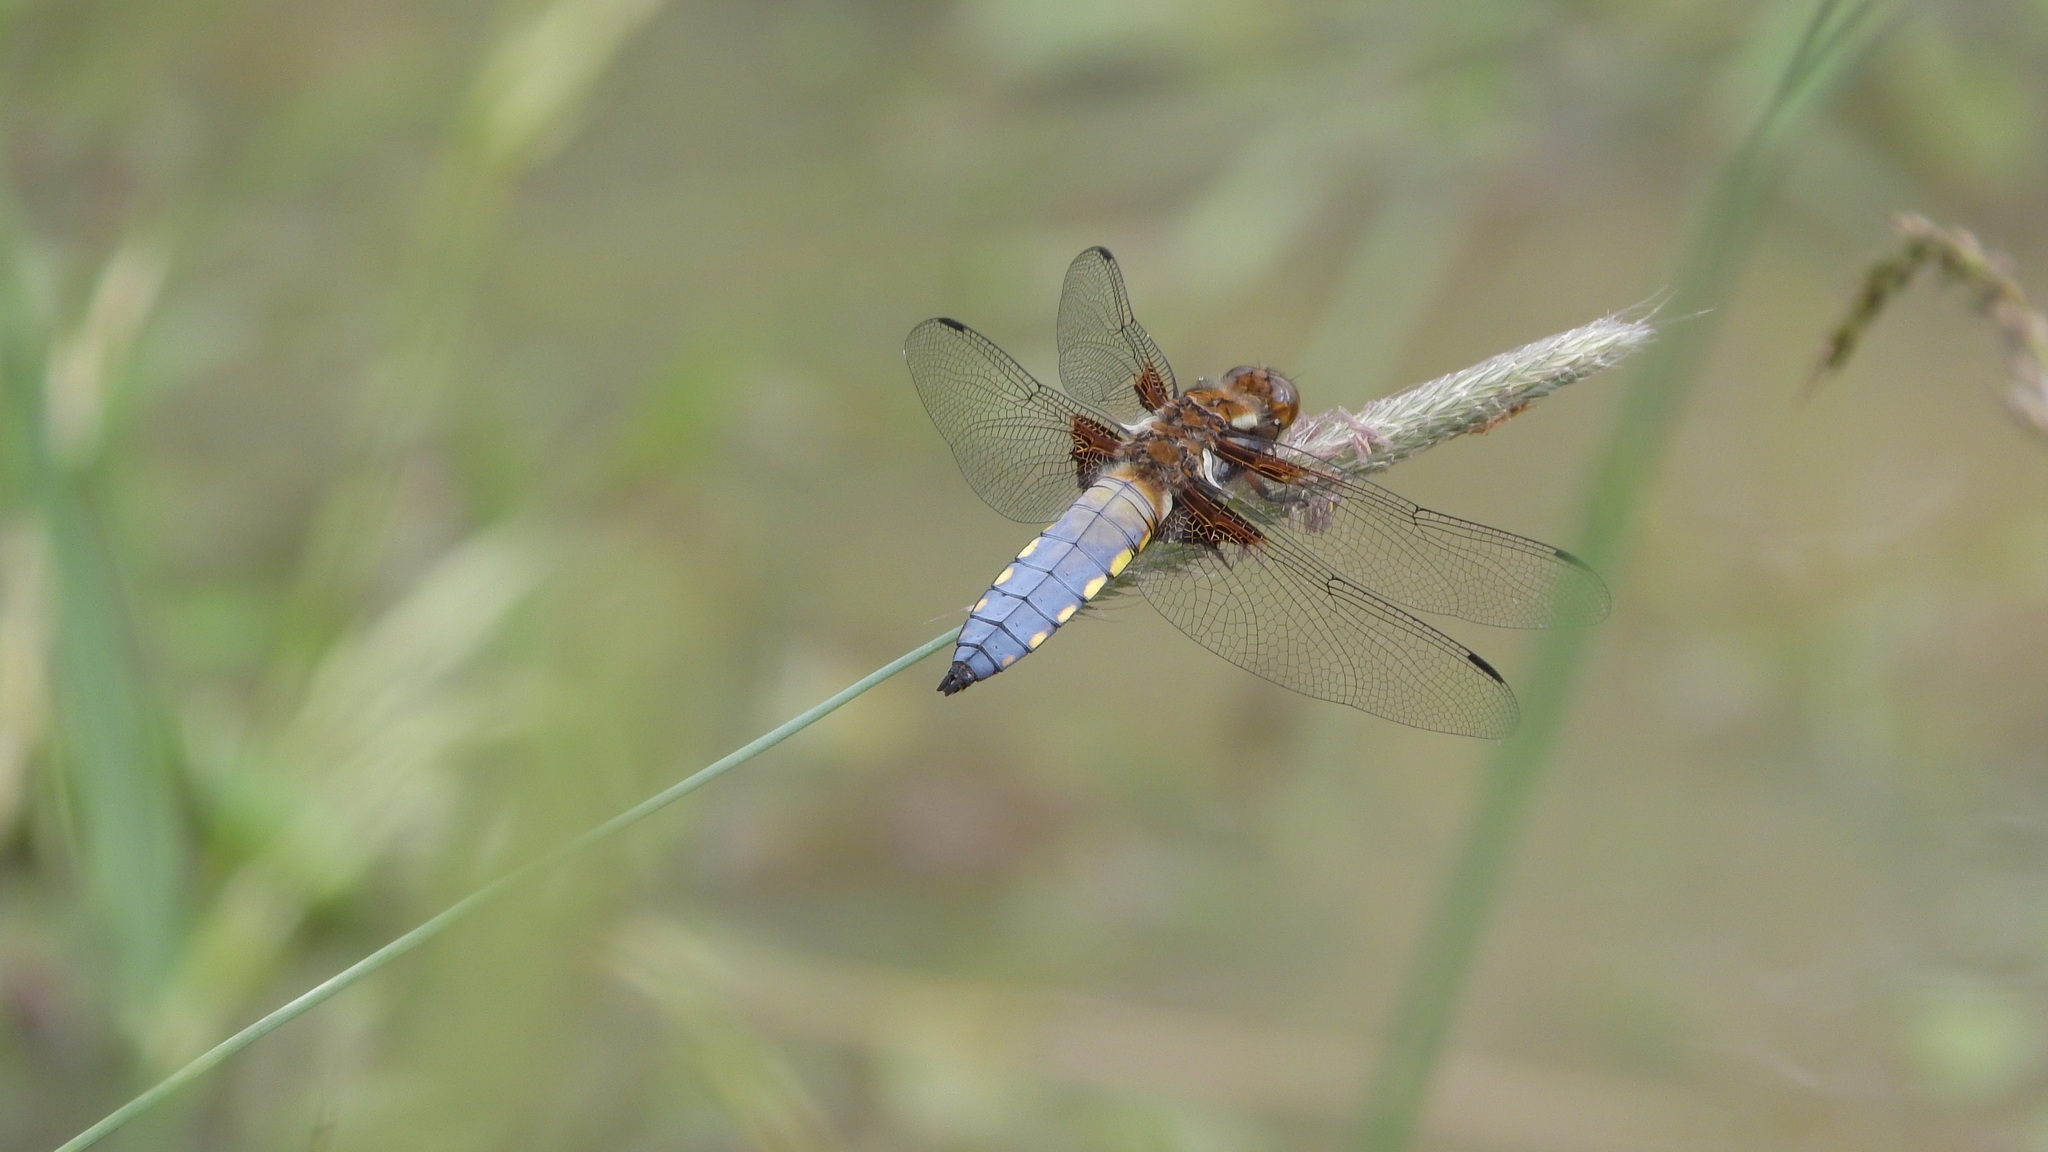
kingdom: Animalia
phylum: Arthropoda
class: Insecta
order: Odonata
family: Libellulidae
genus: Libellula
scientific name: Libellula depressa
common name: Broad-bodied chaser
